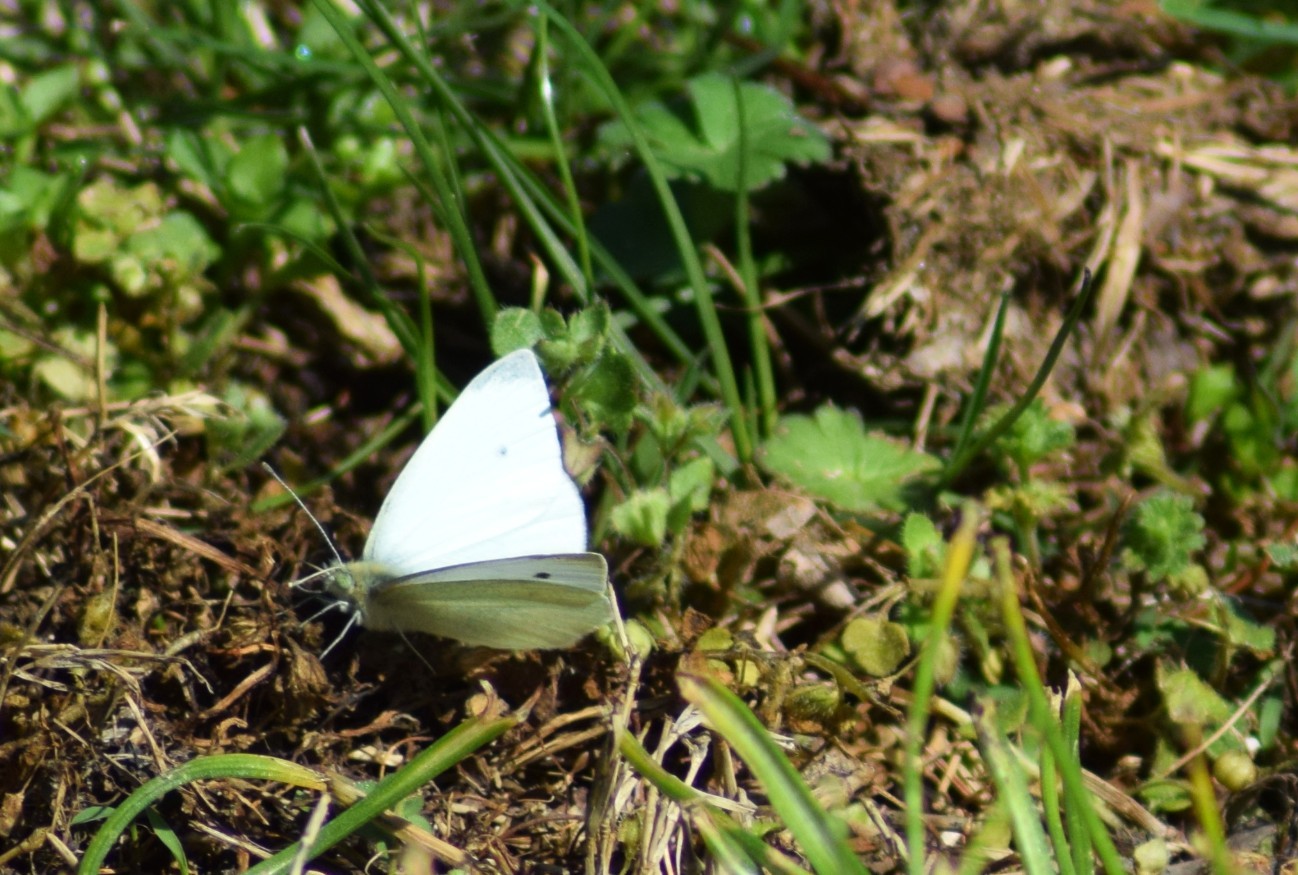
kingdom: Animalia
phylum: Arthropoda
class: Insecta
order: Lepidoptera
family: Pieridae
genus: Pieris
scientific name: Pieris rapae
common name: Small white
